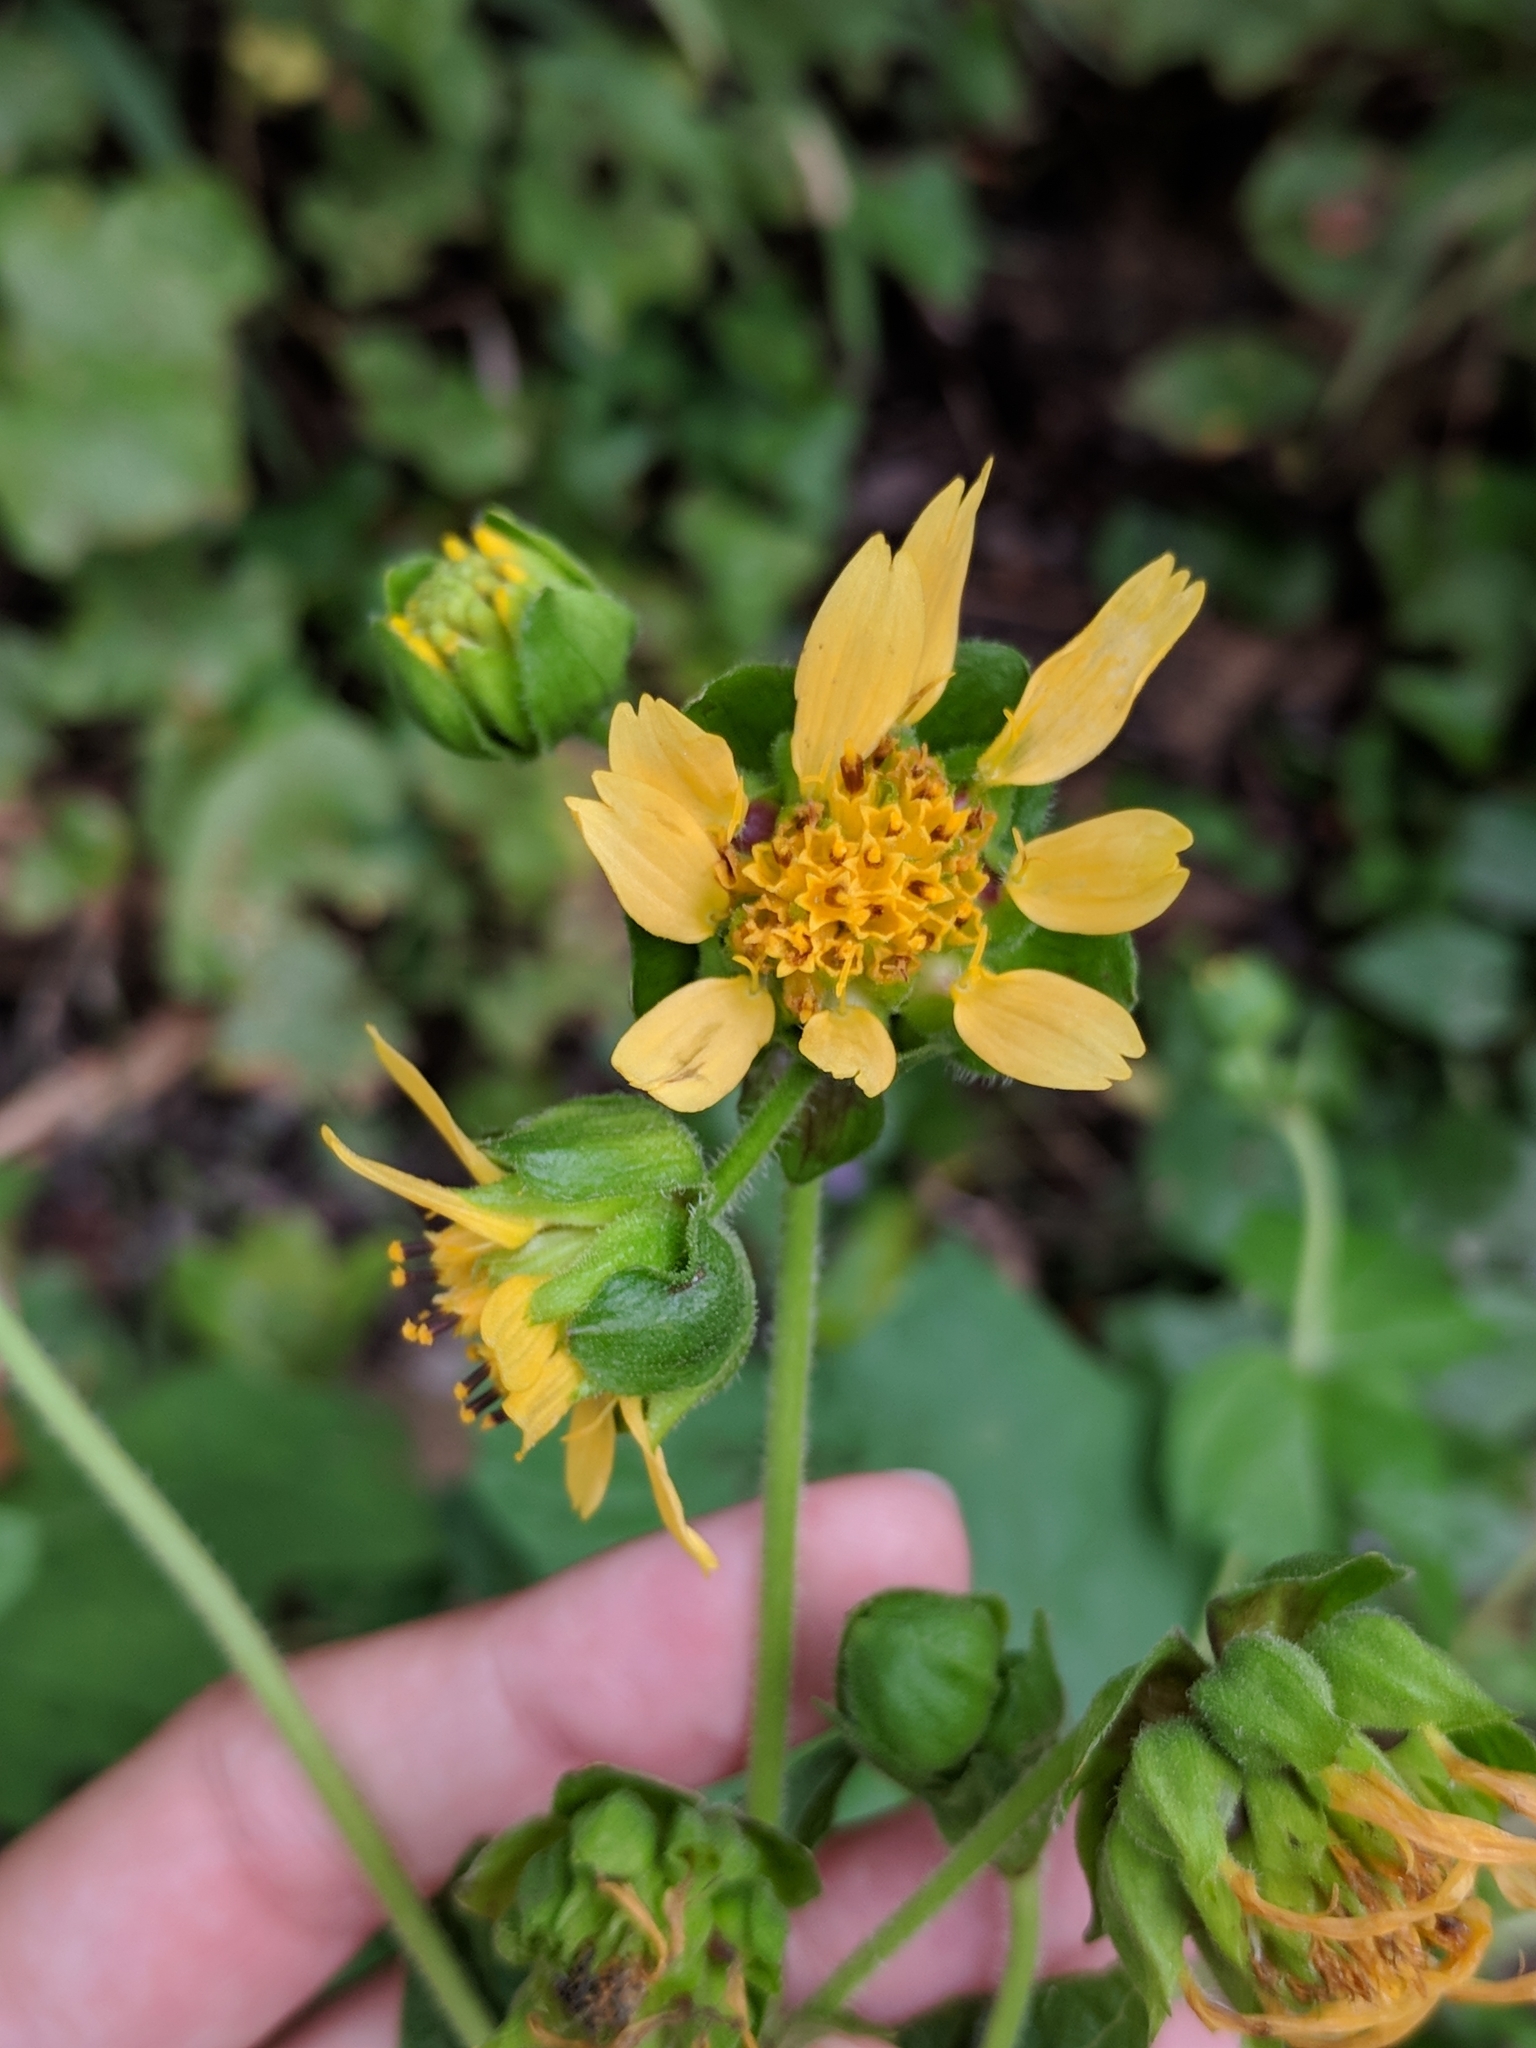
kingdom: Plantae
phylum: Tracheophyta
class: Magnoliopsida
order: Asterales
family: Asteraceae
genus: Smallanthus
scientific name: Smallanthus uvedalia
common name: Bear's-foot
